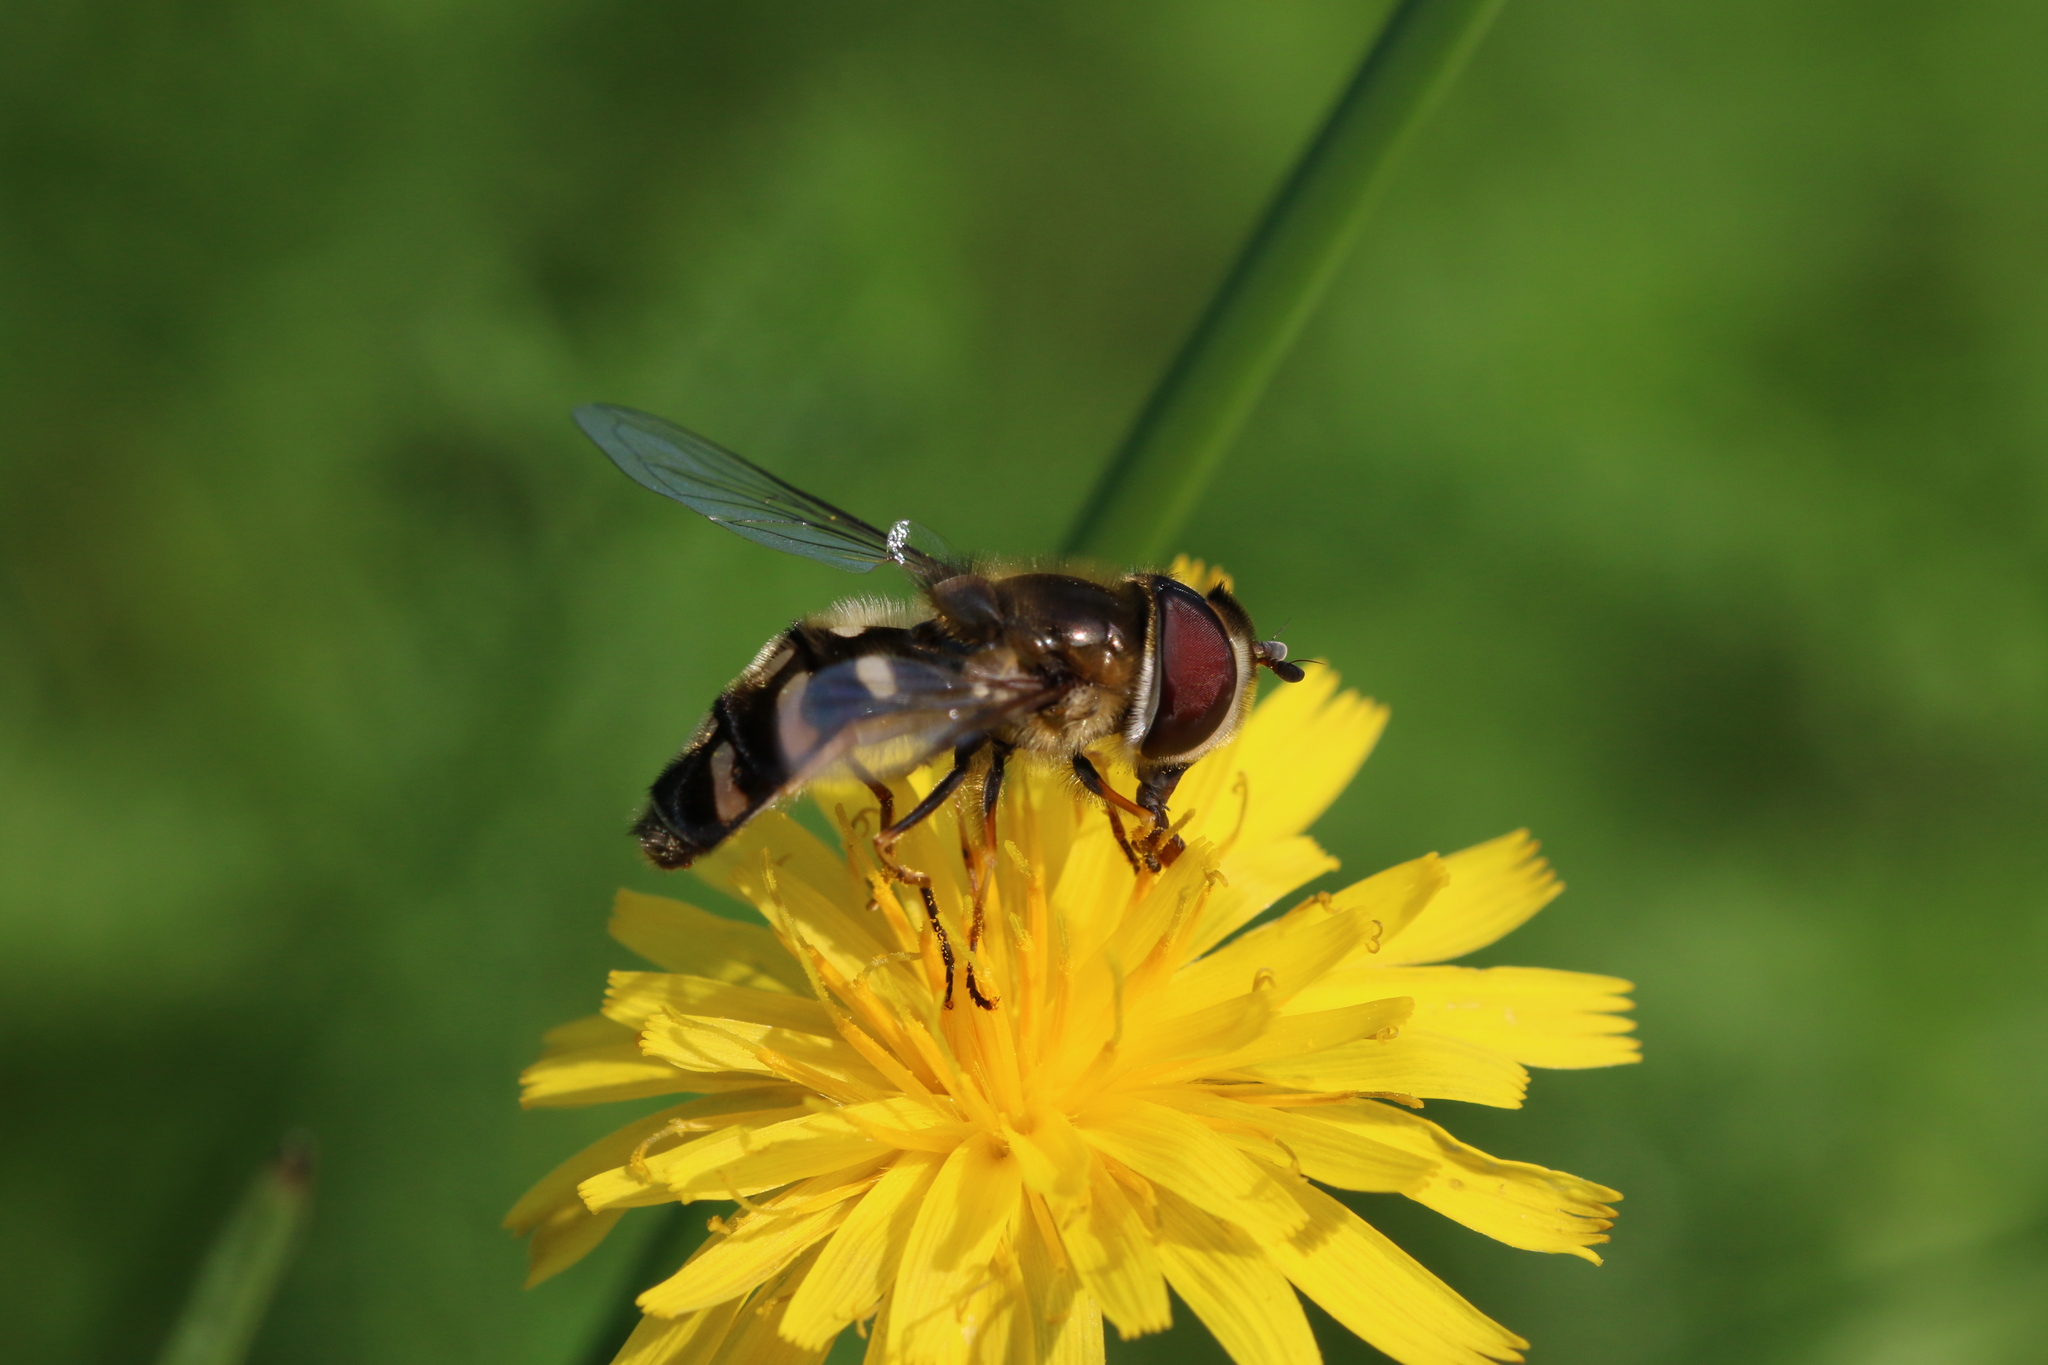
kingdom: Animalia
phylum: Arthropoda
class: Insecta
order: Diptera
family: Syrphidae
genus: Scaeva
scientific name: Scaeva pyrastri
